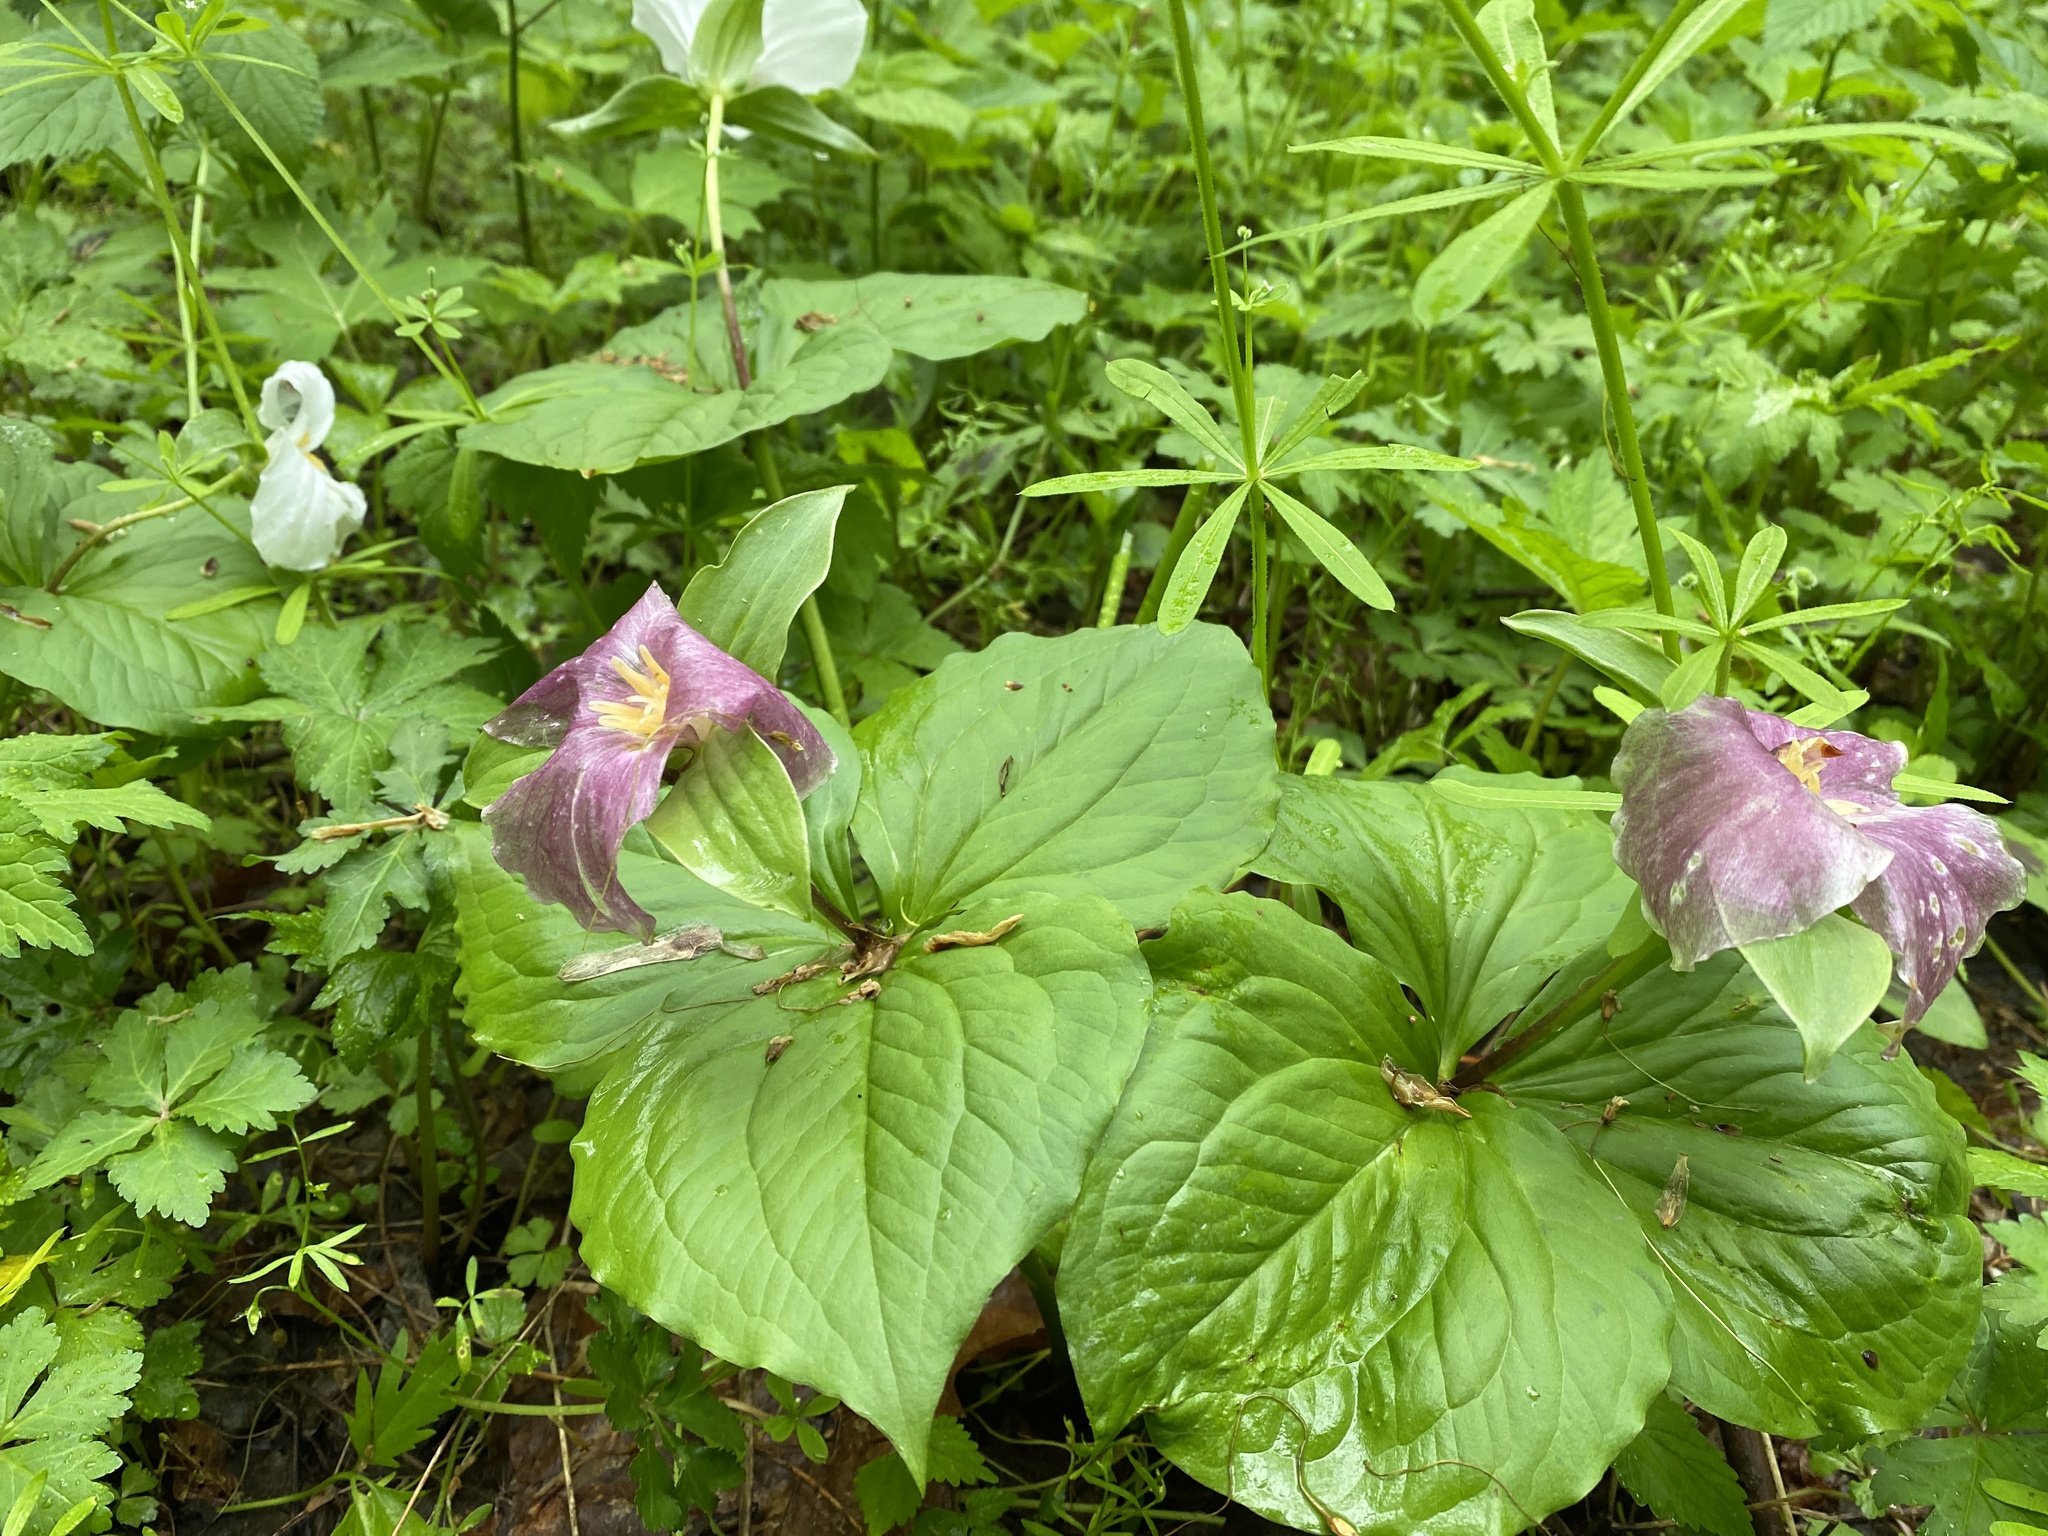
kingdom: Plantae
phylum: Tracheophyta
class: Liliopsida
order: Liliales
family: Melanthiaceae
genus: Trillium
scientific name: Trillium grandiflorum
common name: Great white trillium
